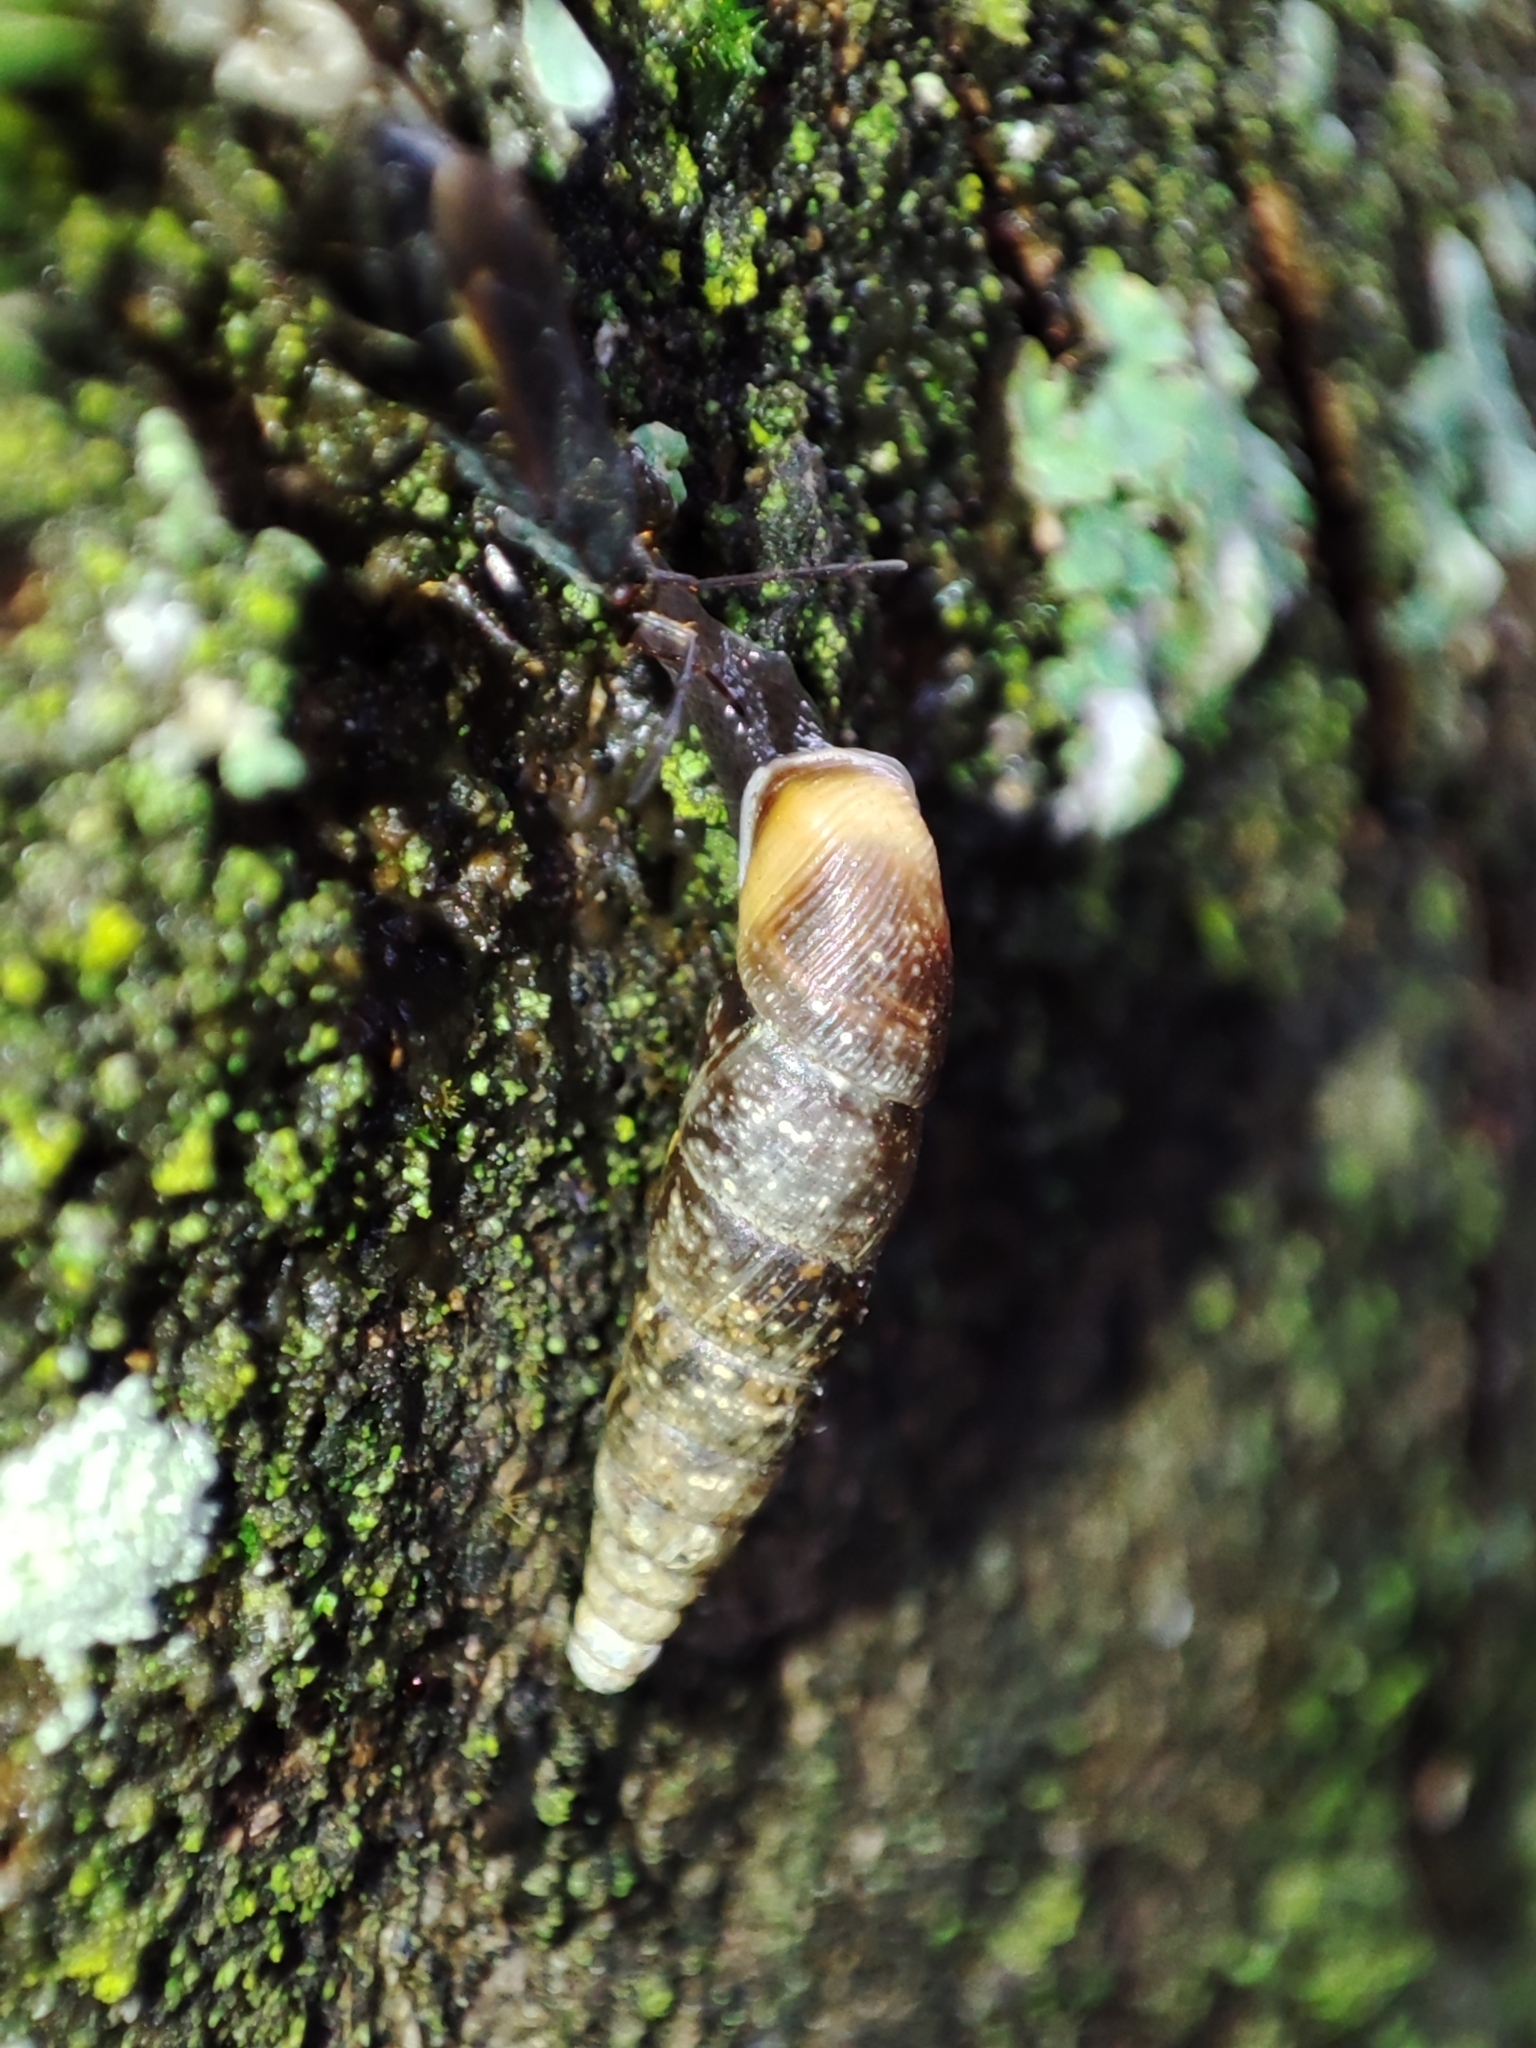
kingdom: Animalia
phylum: Mollusca
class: Gastropoda
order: Stylommatophora
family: Clausiliidae
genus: Cochlodina
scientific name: Cochlodina orthostoma
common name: Straightmouth door snail
